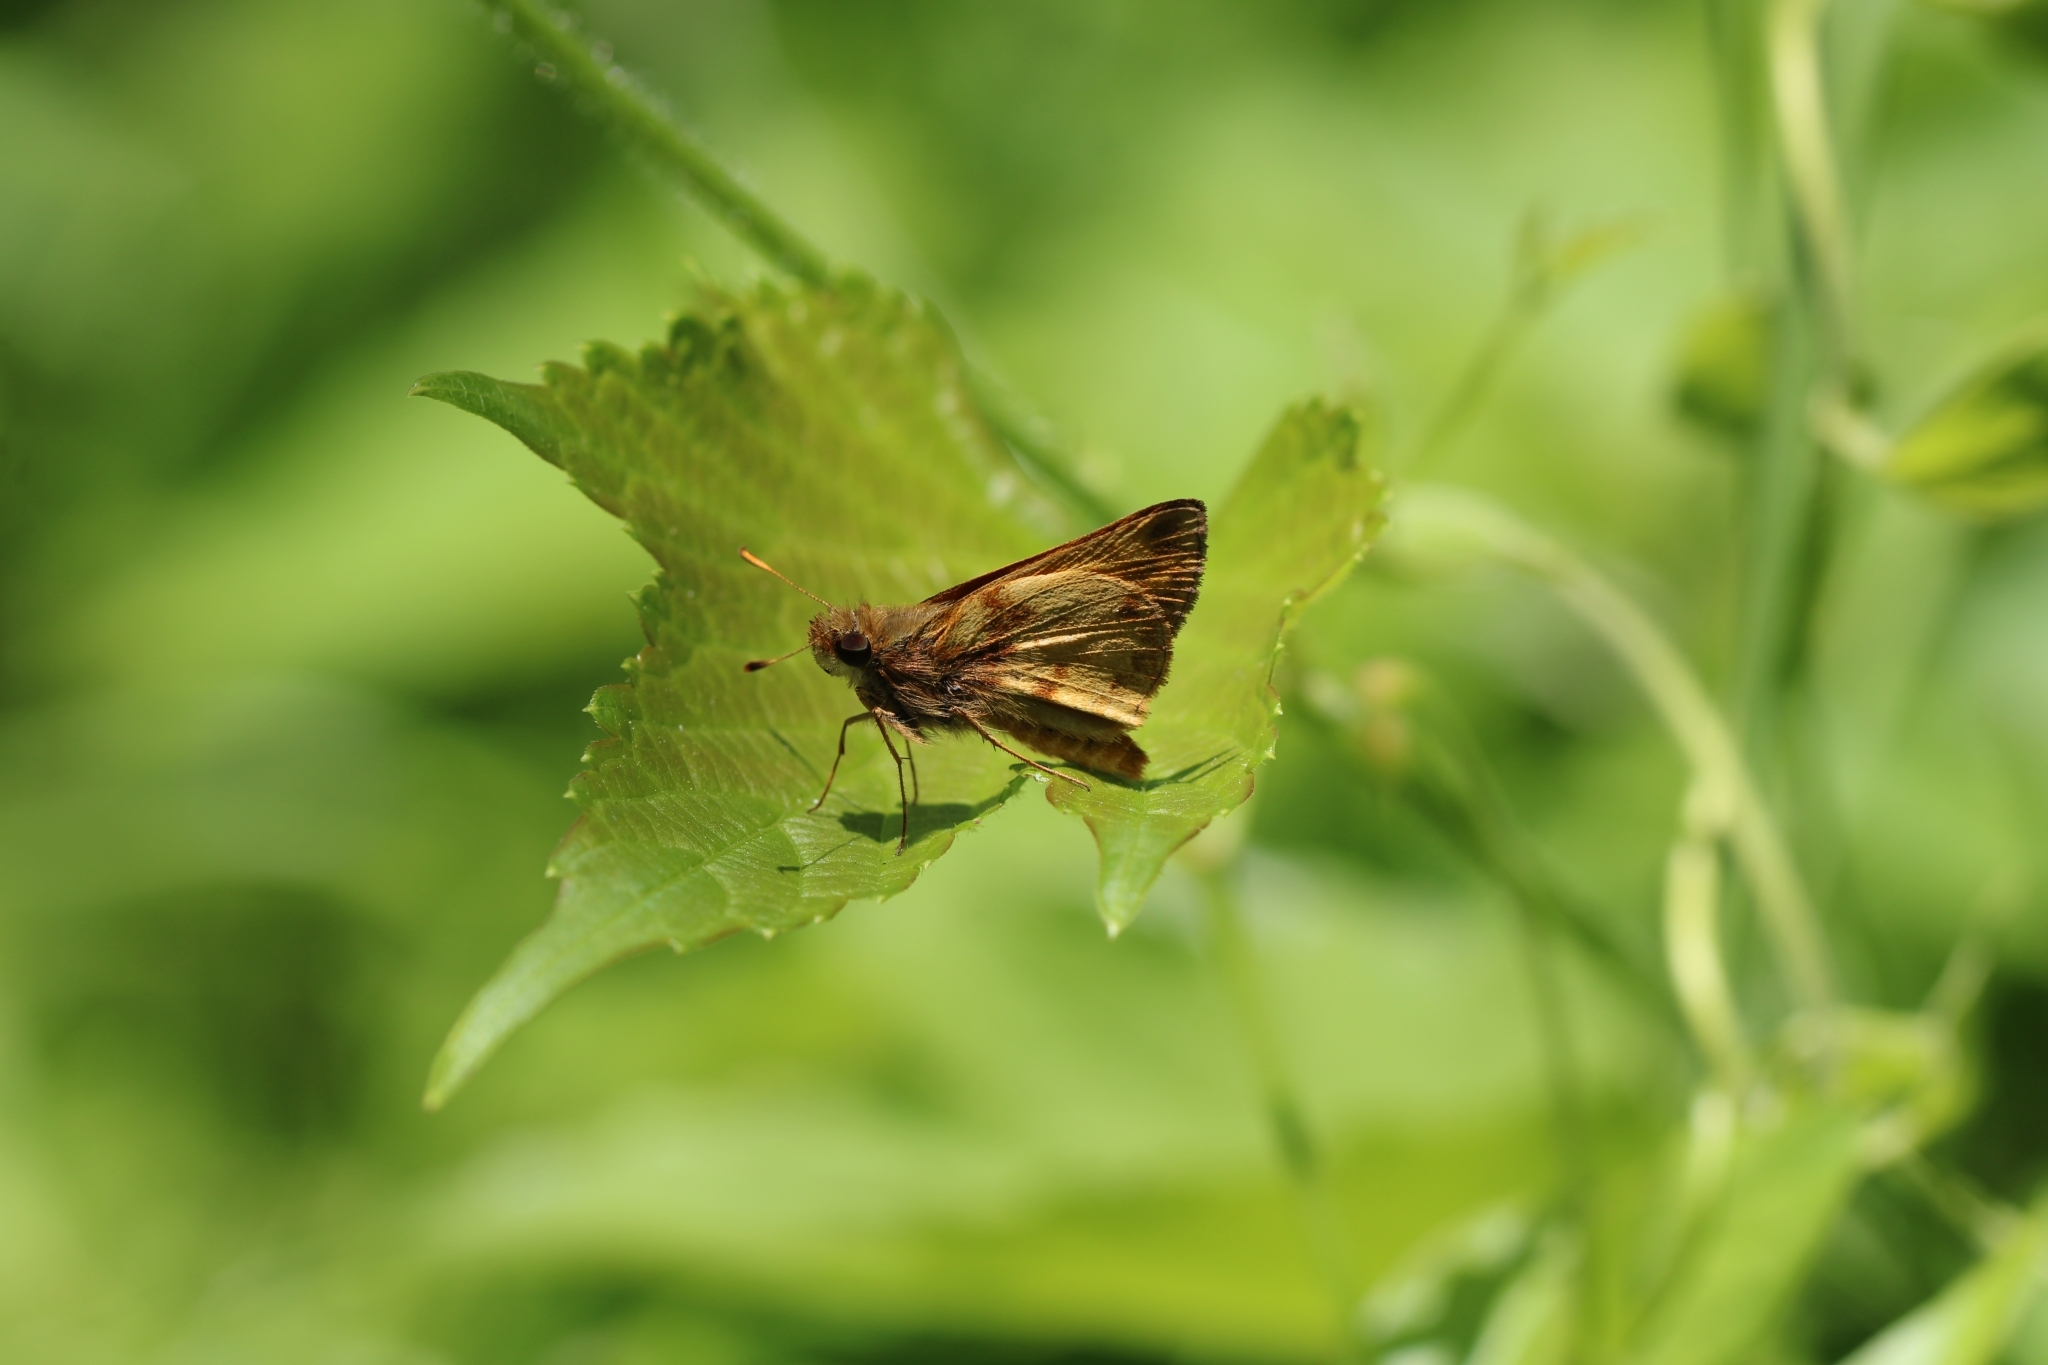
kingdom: Animalia
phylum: Arthropoda
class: Insecta
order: Lepidoptera
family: Hesperiidae
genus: Lon
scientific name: Lon zabulon
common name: Zabulon skipper
